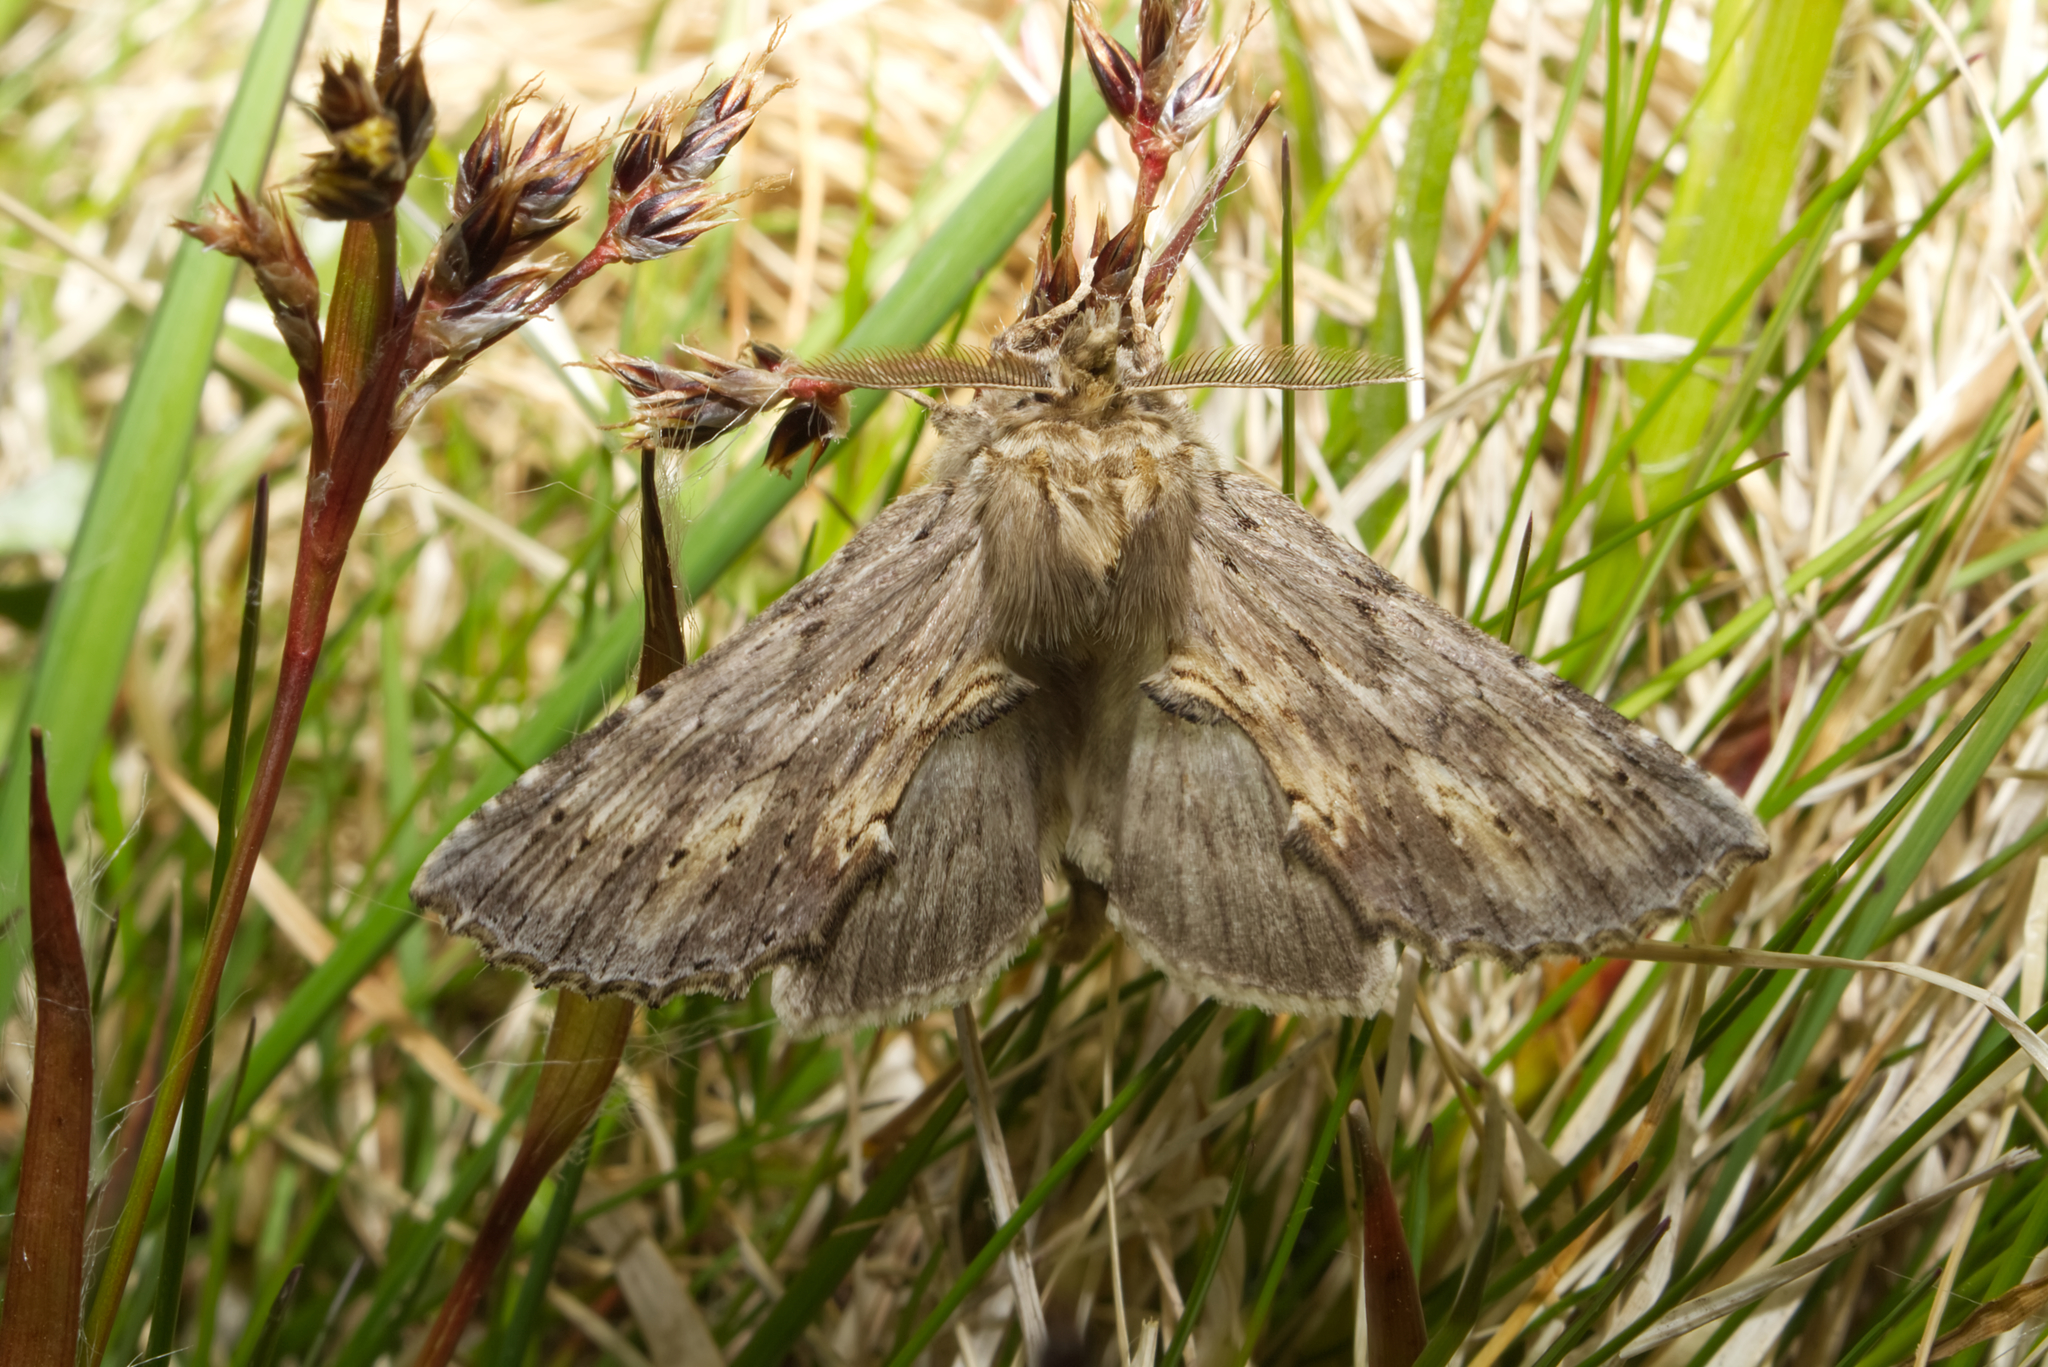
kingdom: Animalia
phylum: Arthropoda
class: Insecta
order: Lepidoptera
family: Notodontidae
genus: Pterostoma
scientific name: Pterostoma palpina
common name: Pale prominent
